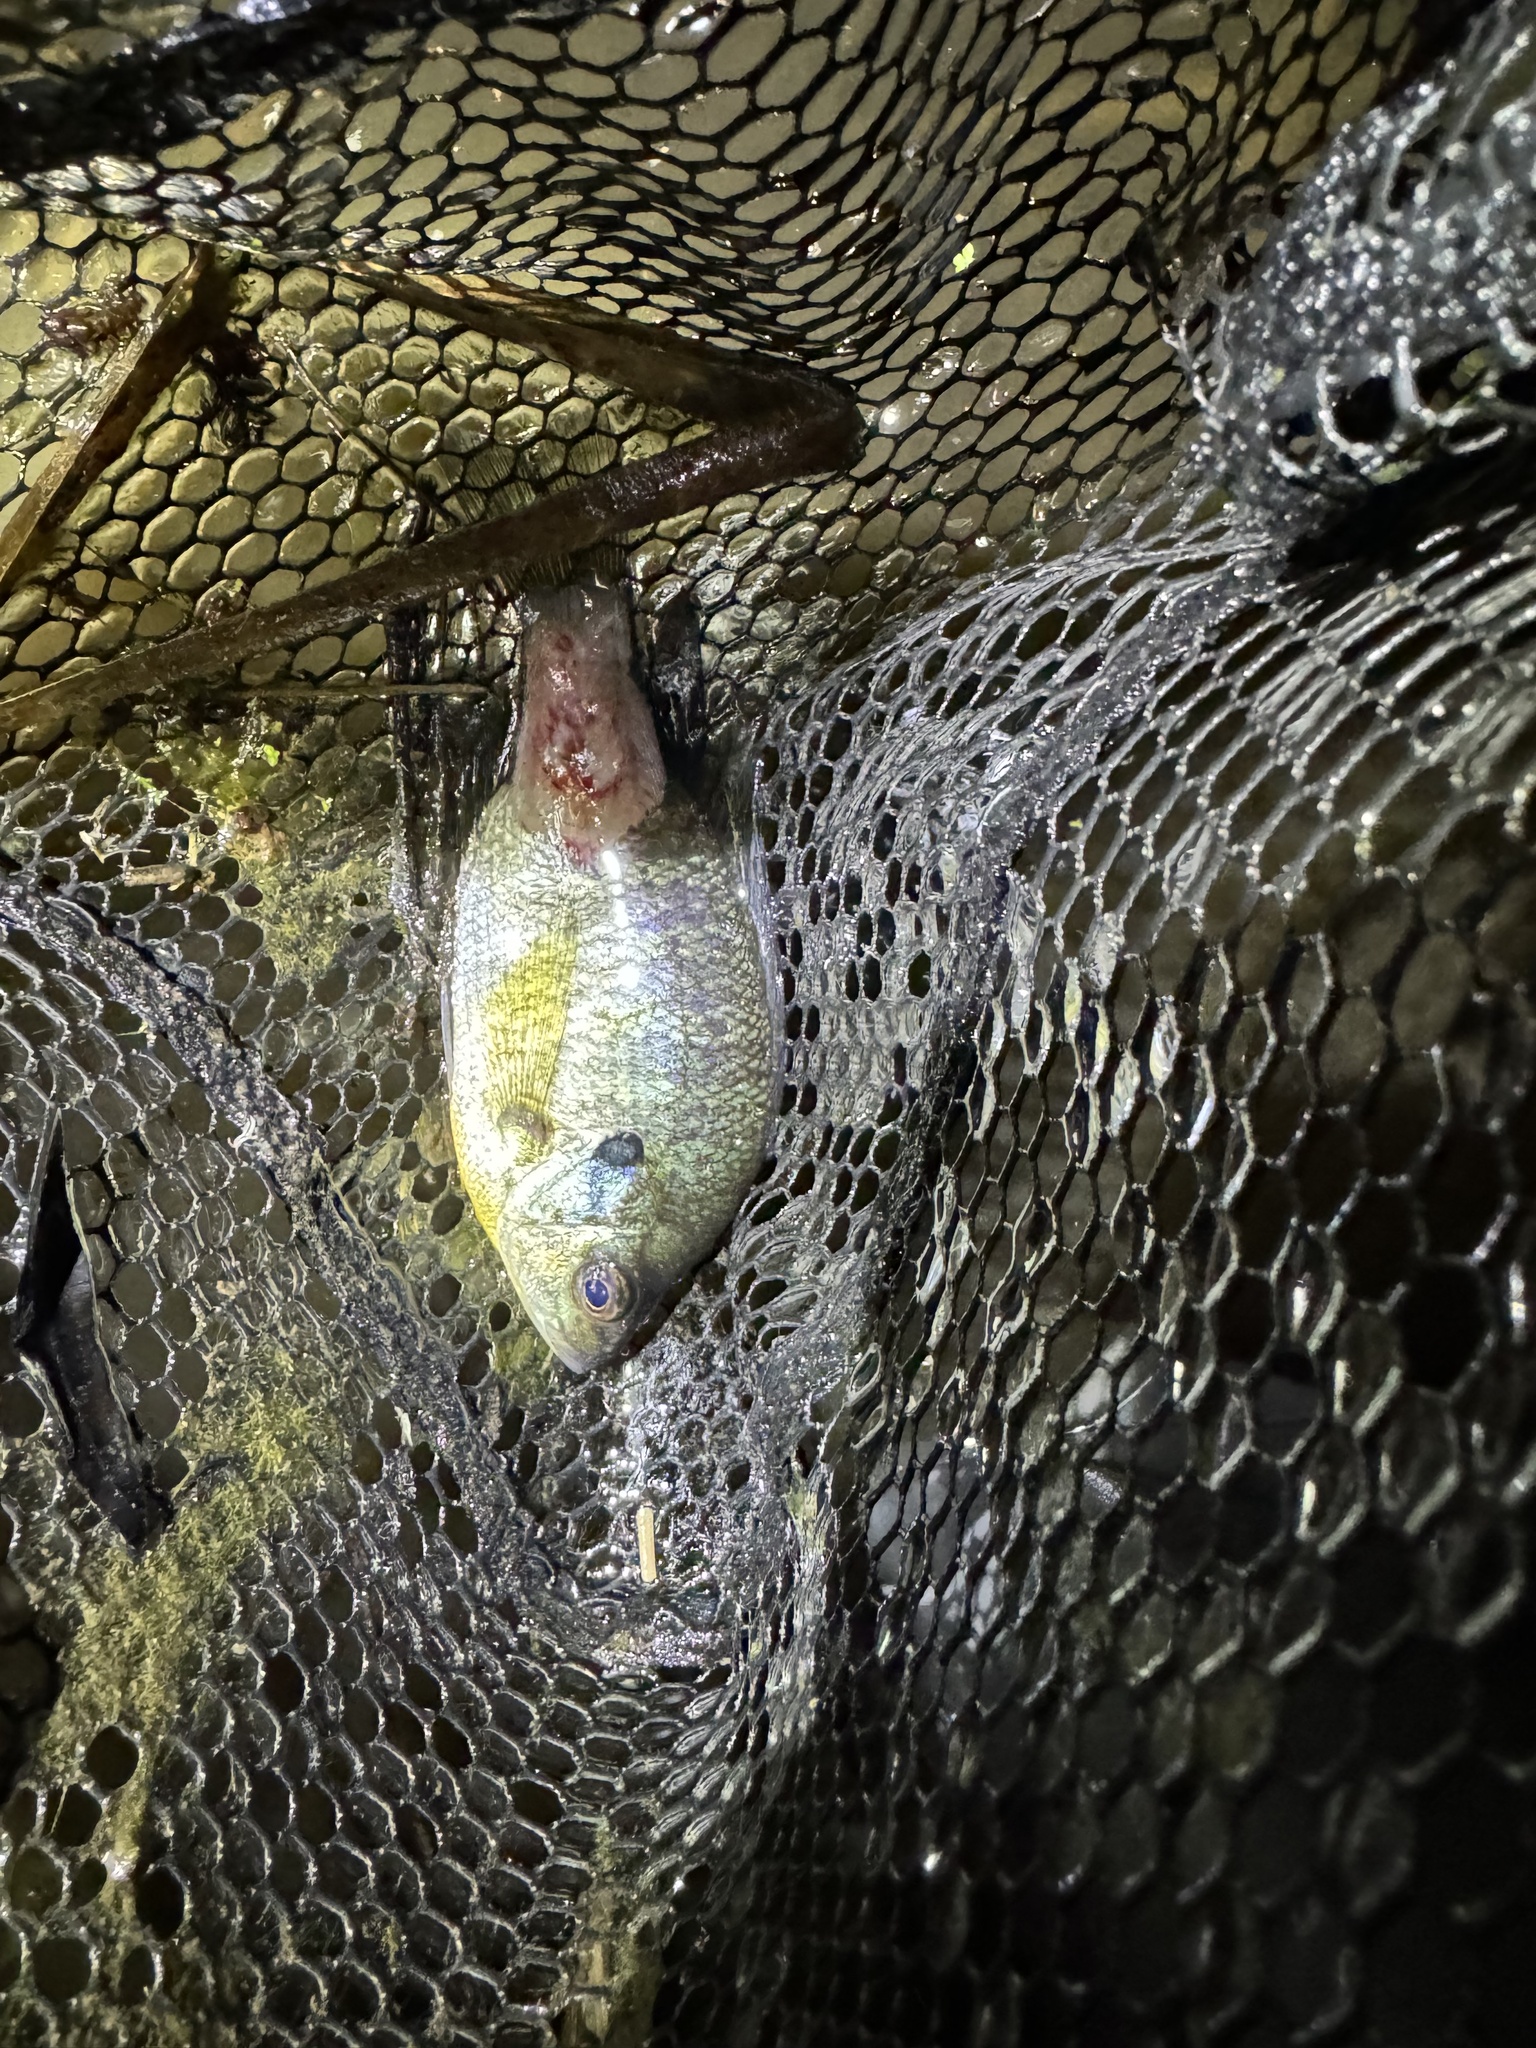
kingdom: Animalia
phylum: Chordata
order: Perciformes
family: Centrarchidae
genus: Lepomis
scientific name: Lepomis macrochirus
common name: Bluegill
